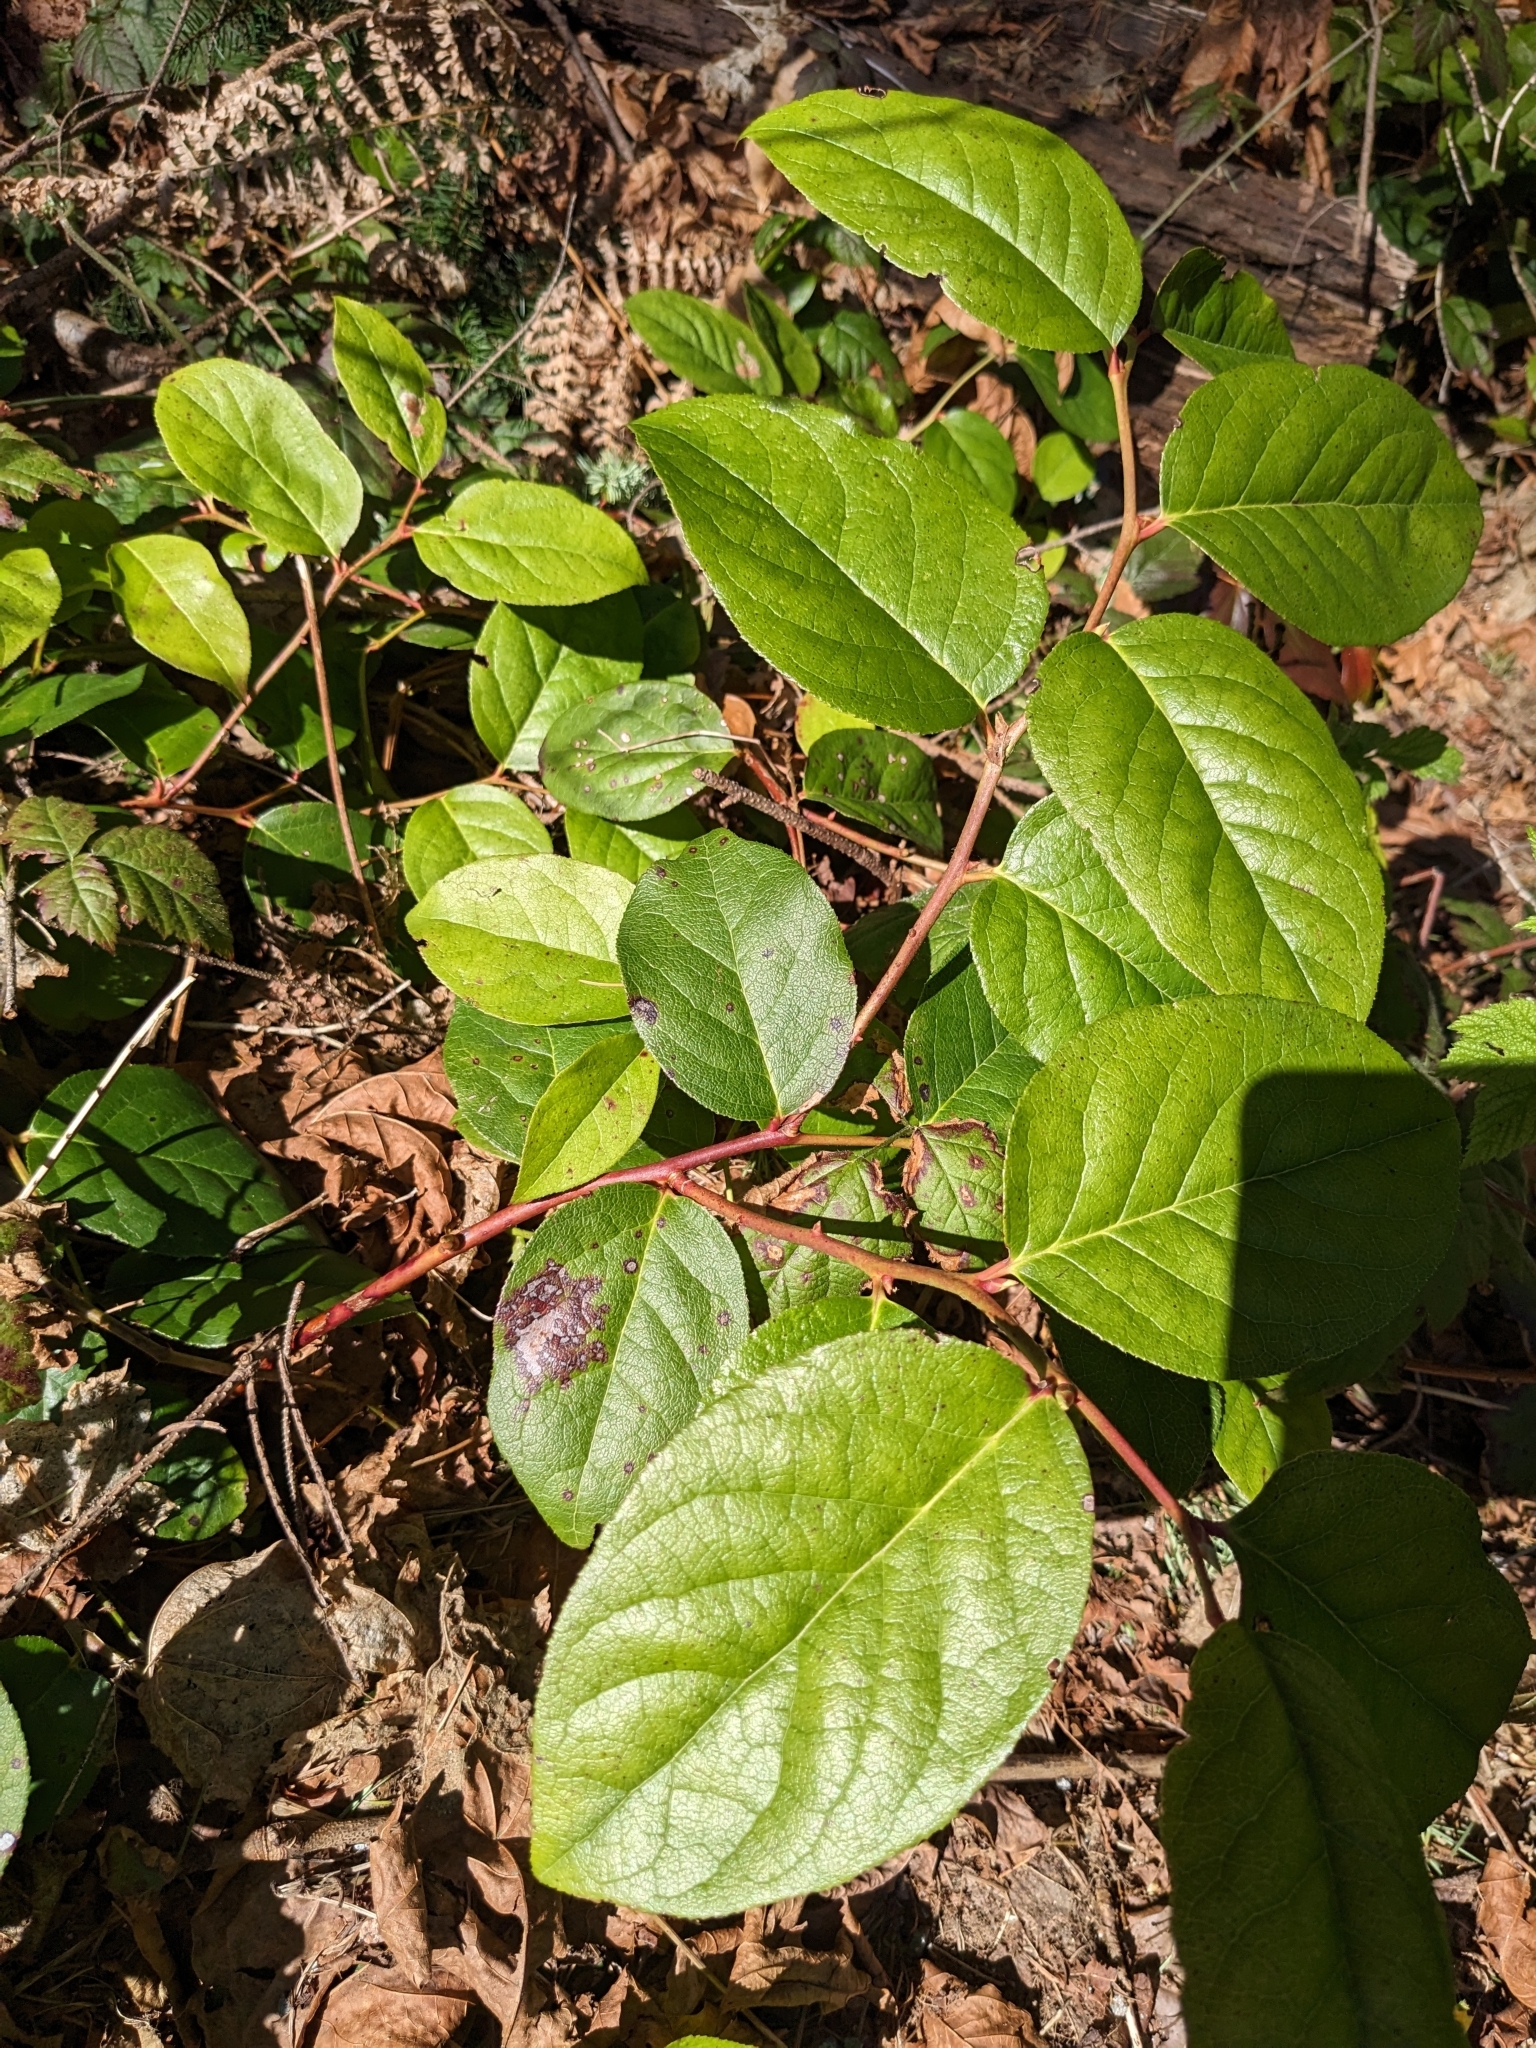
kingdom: Plantae
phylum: Tracheophyta
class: Magnoliopsida
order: Ericales
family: Ericaceae
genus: Gaultheria
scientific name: Gaultheria shallon
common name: Shallon
